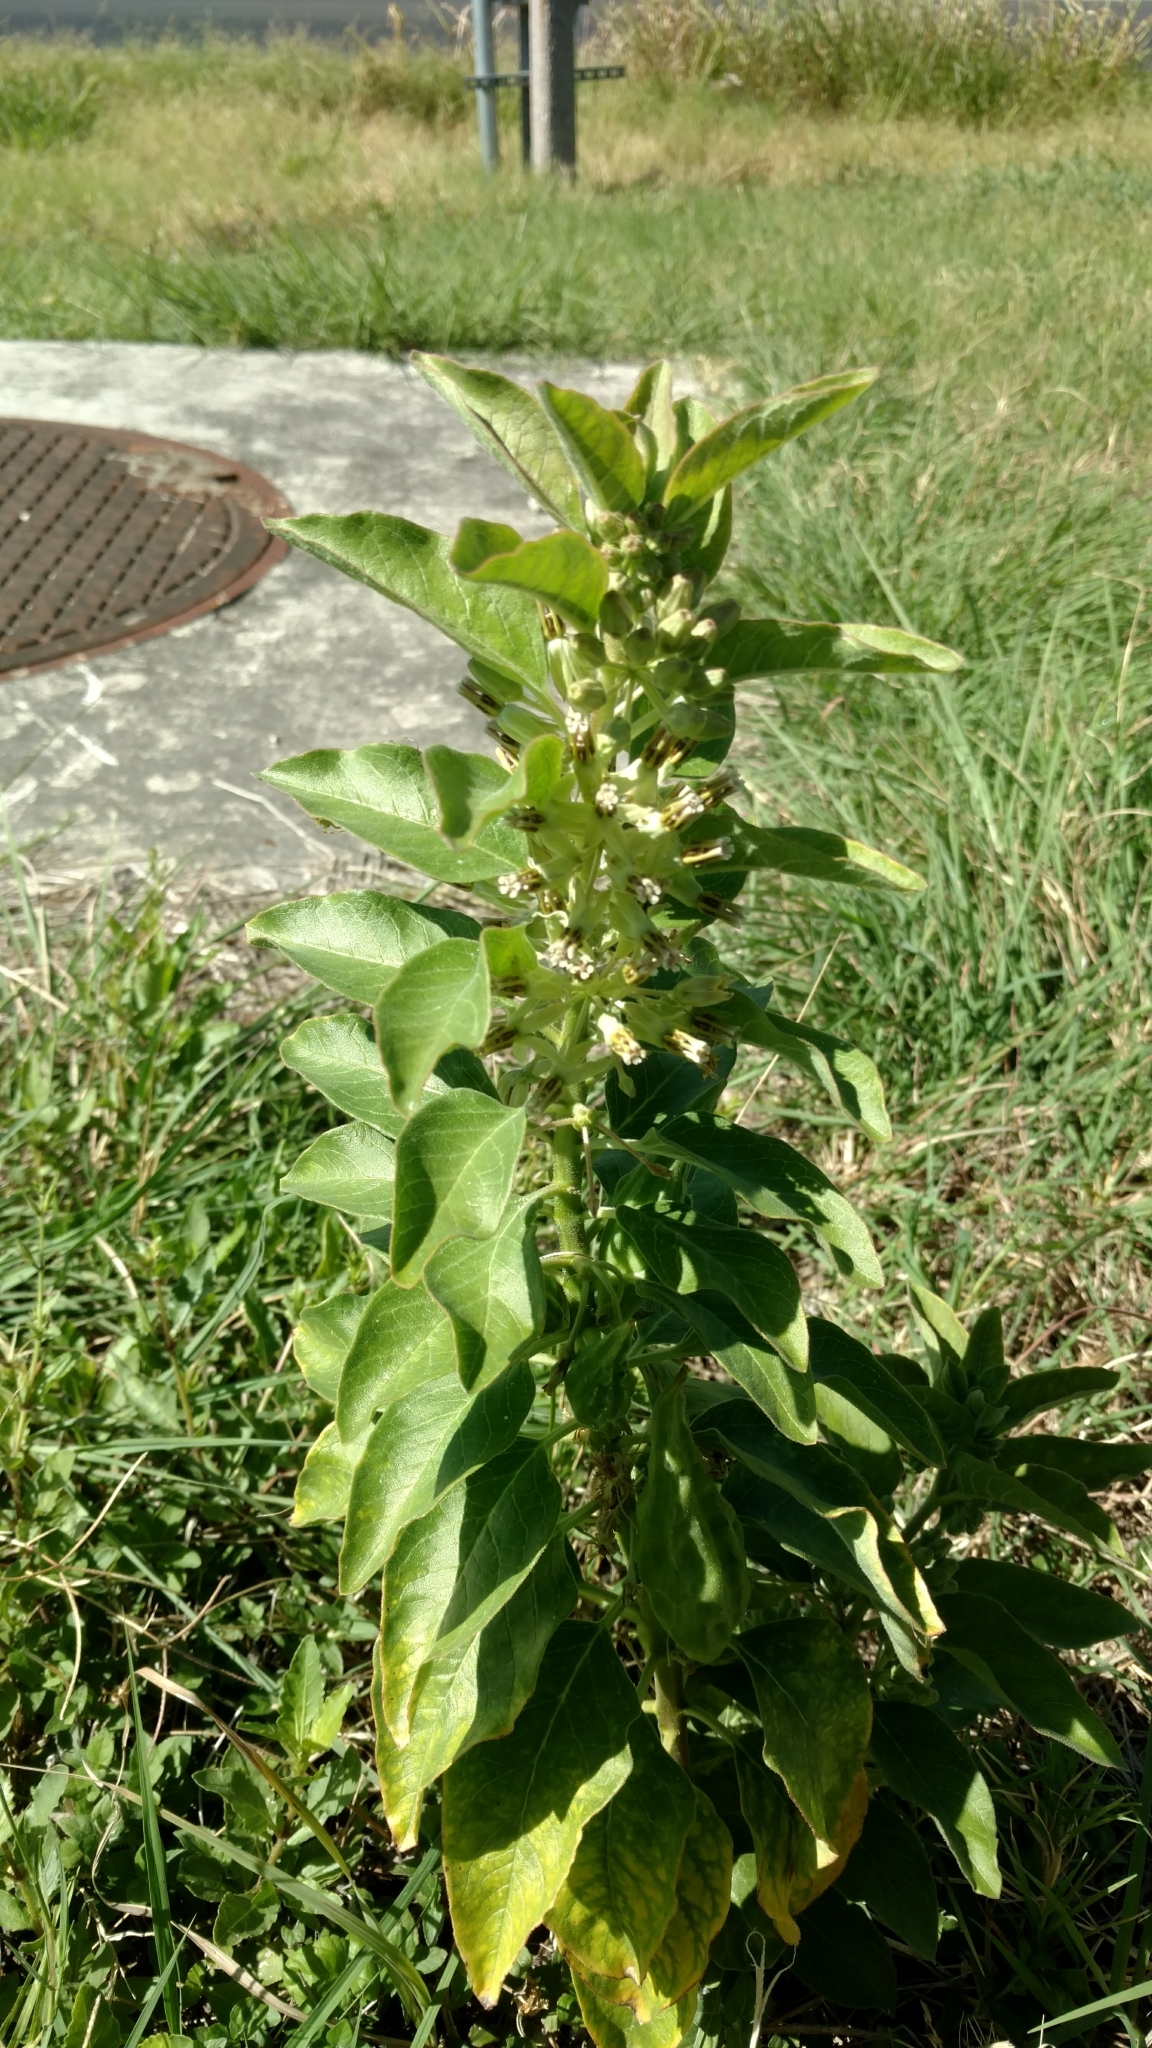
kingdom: Plantae
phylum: Tracheophyta
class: Magnoliopsida
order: Gentianales
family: Apocynaceae
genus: Asclepias
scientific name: Asclepias oenotheroides
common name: Zizotes milkweed
